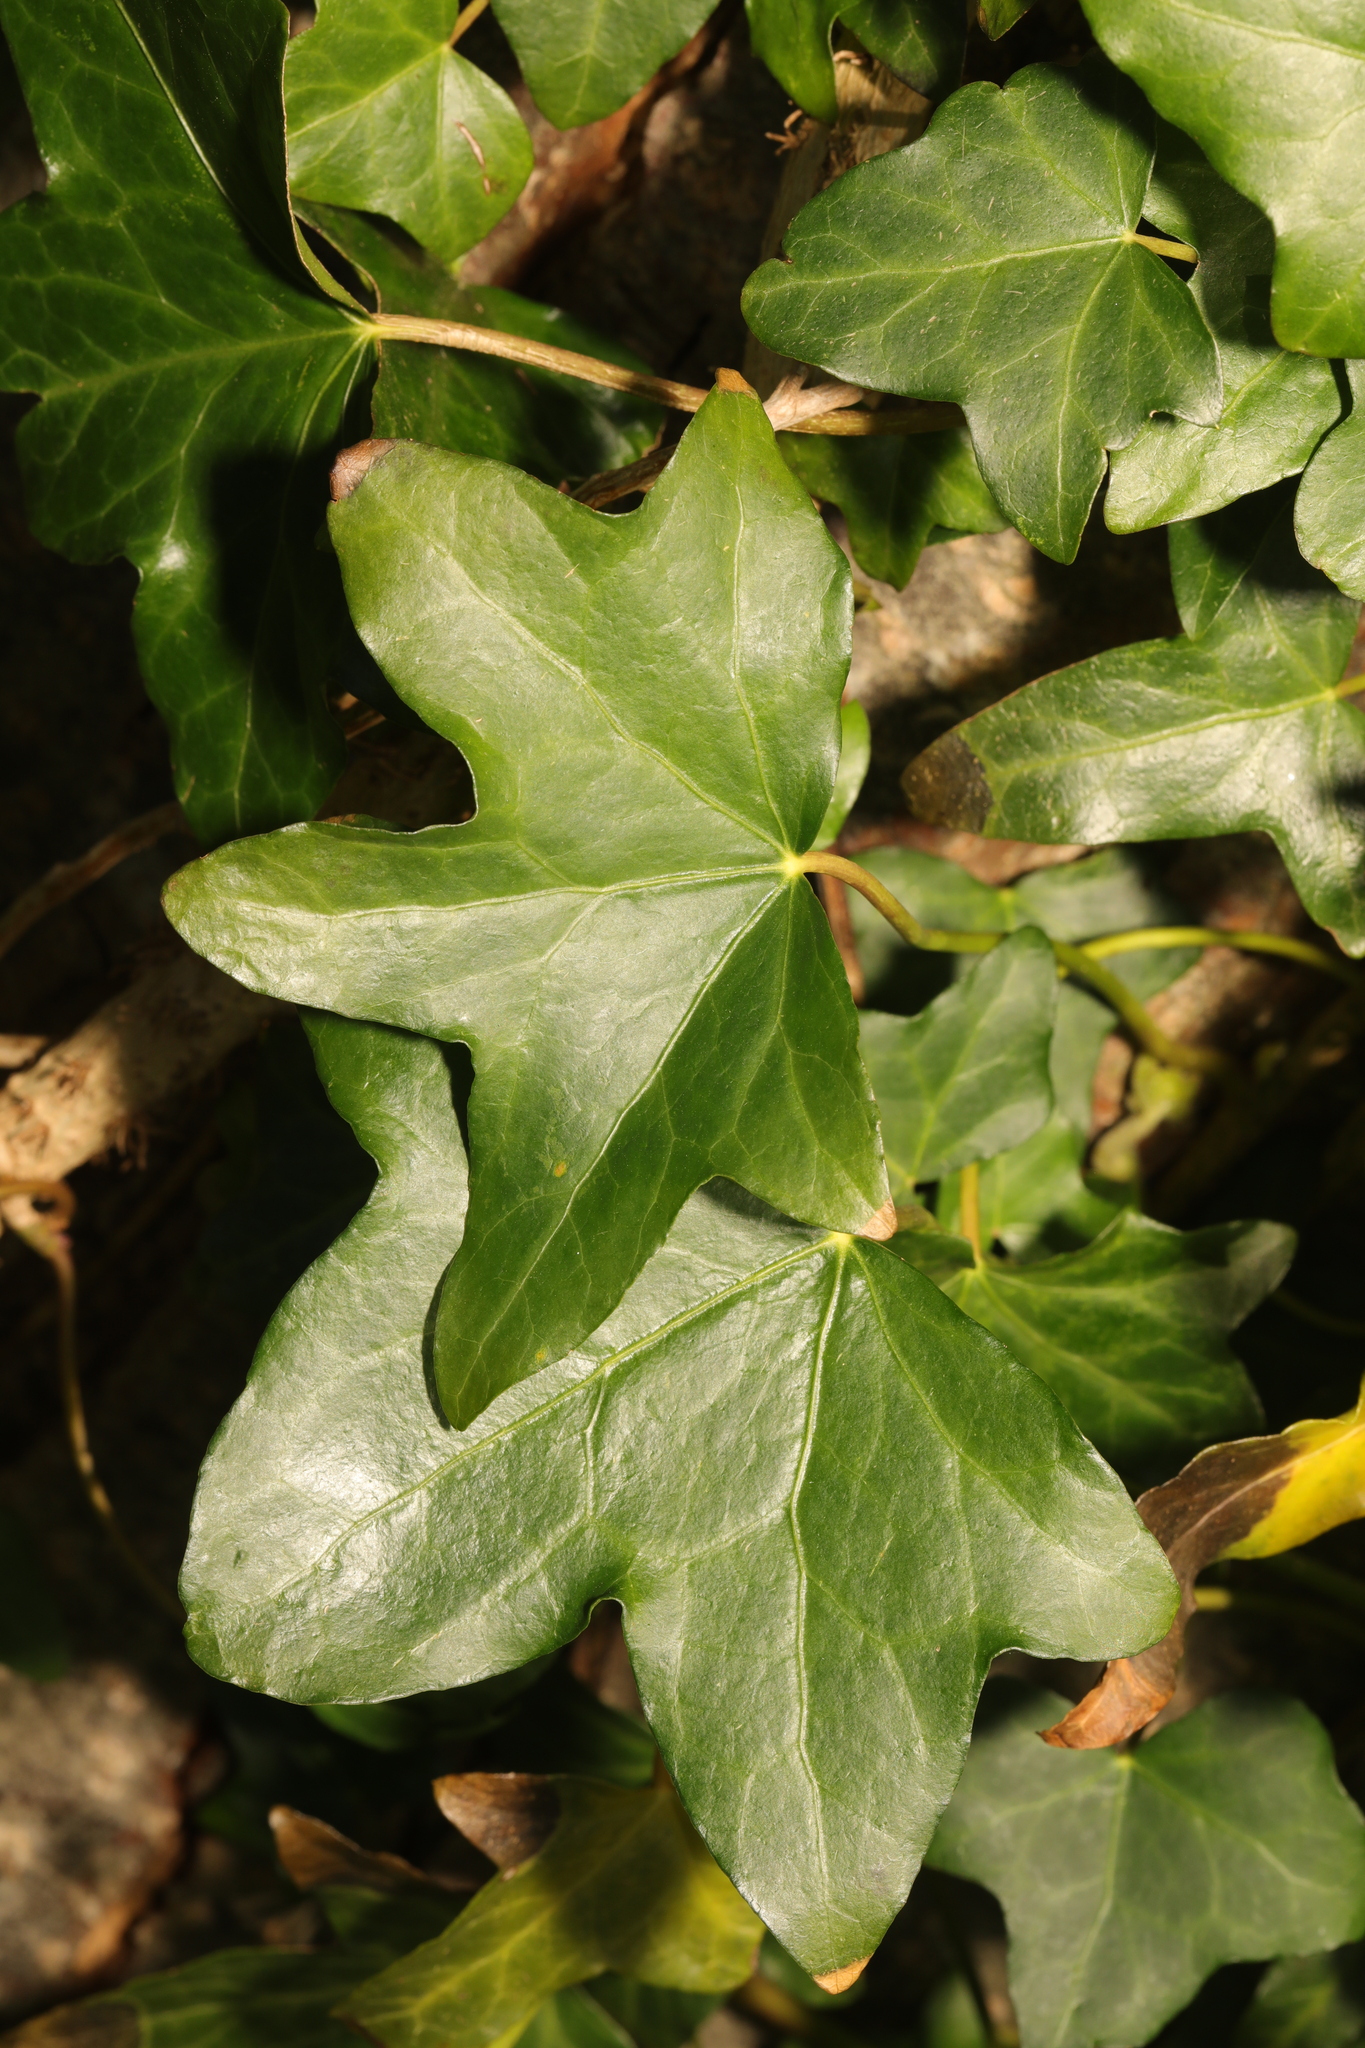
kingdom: Plantae
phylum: Tracheophyta
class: Magnoliopsida
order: Apiales
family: Araliaceae
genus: Hedera
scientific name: Hedera helix
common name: Ivy
